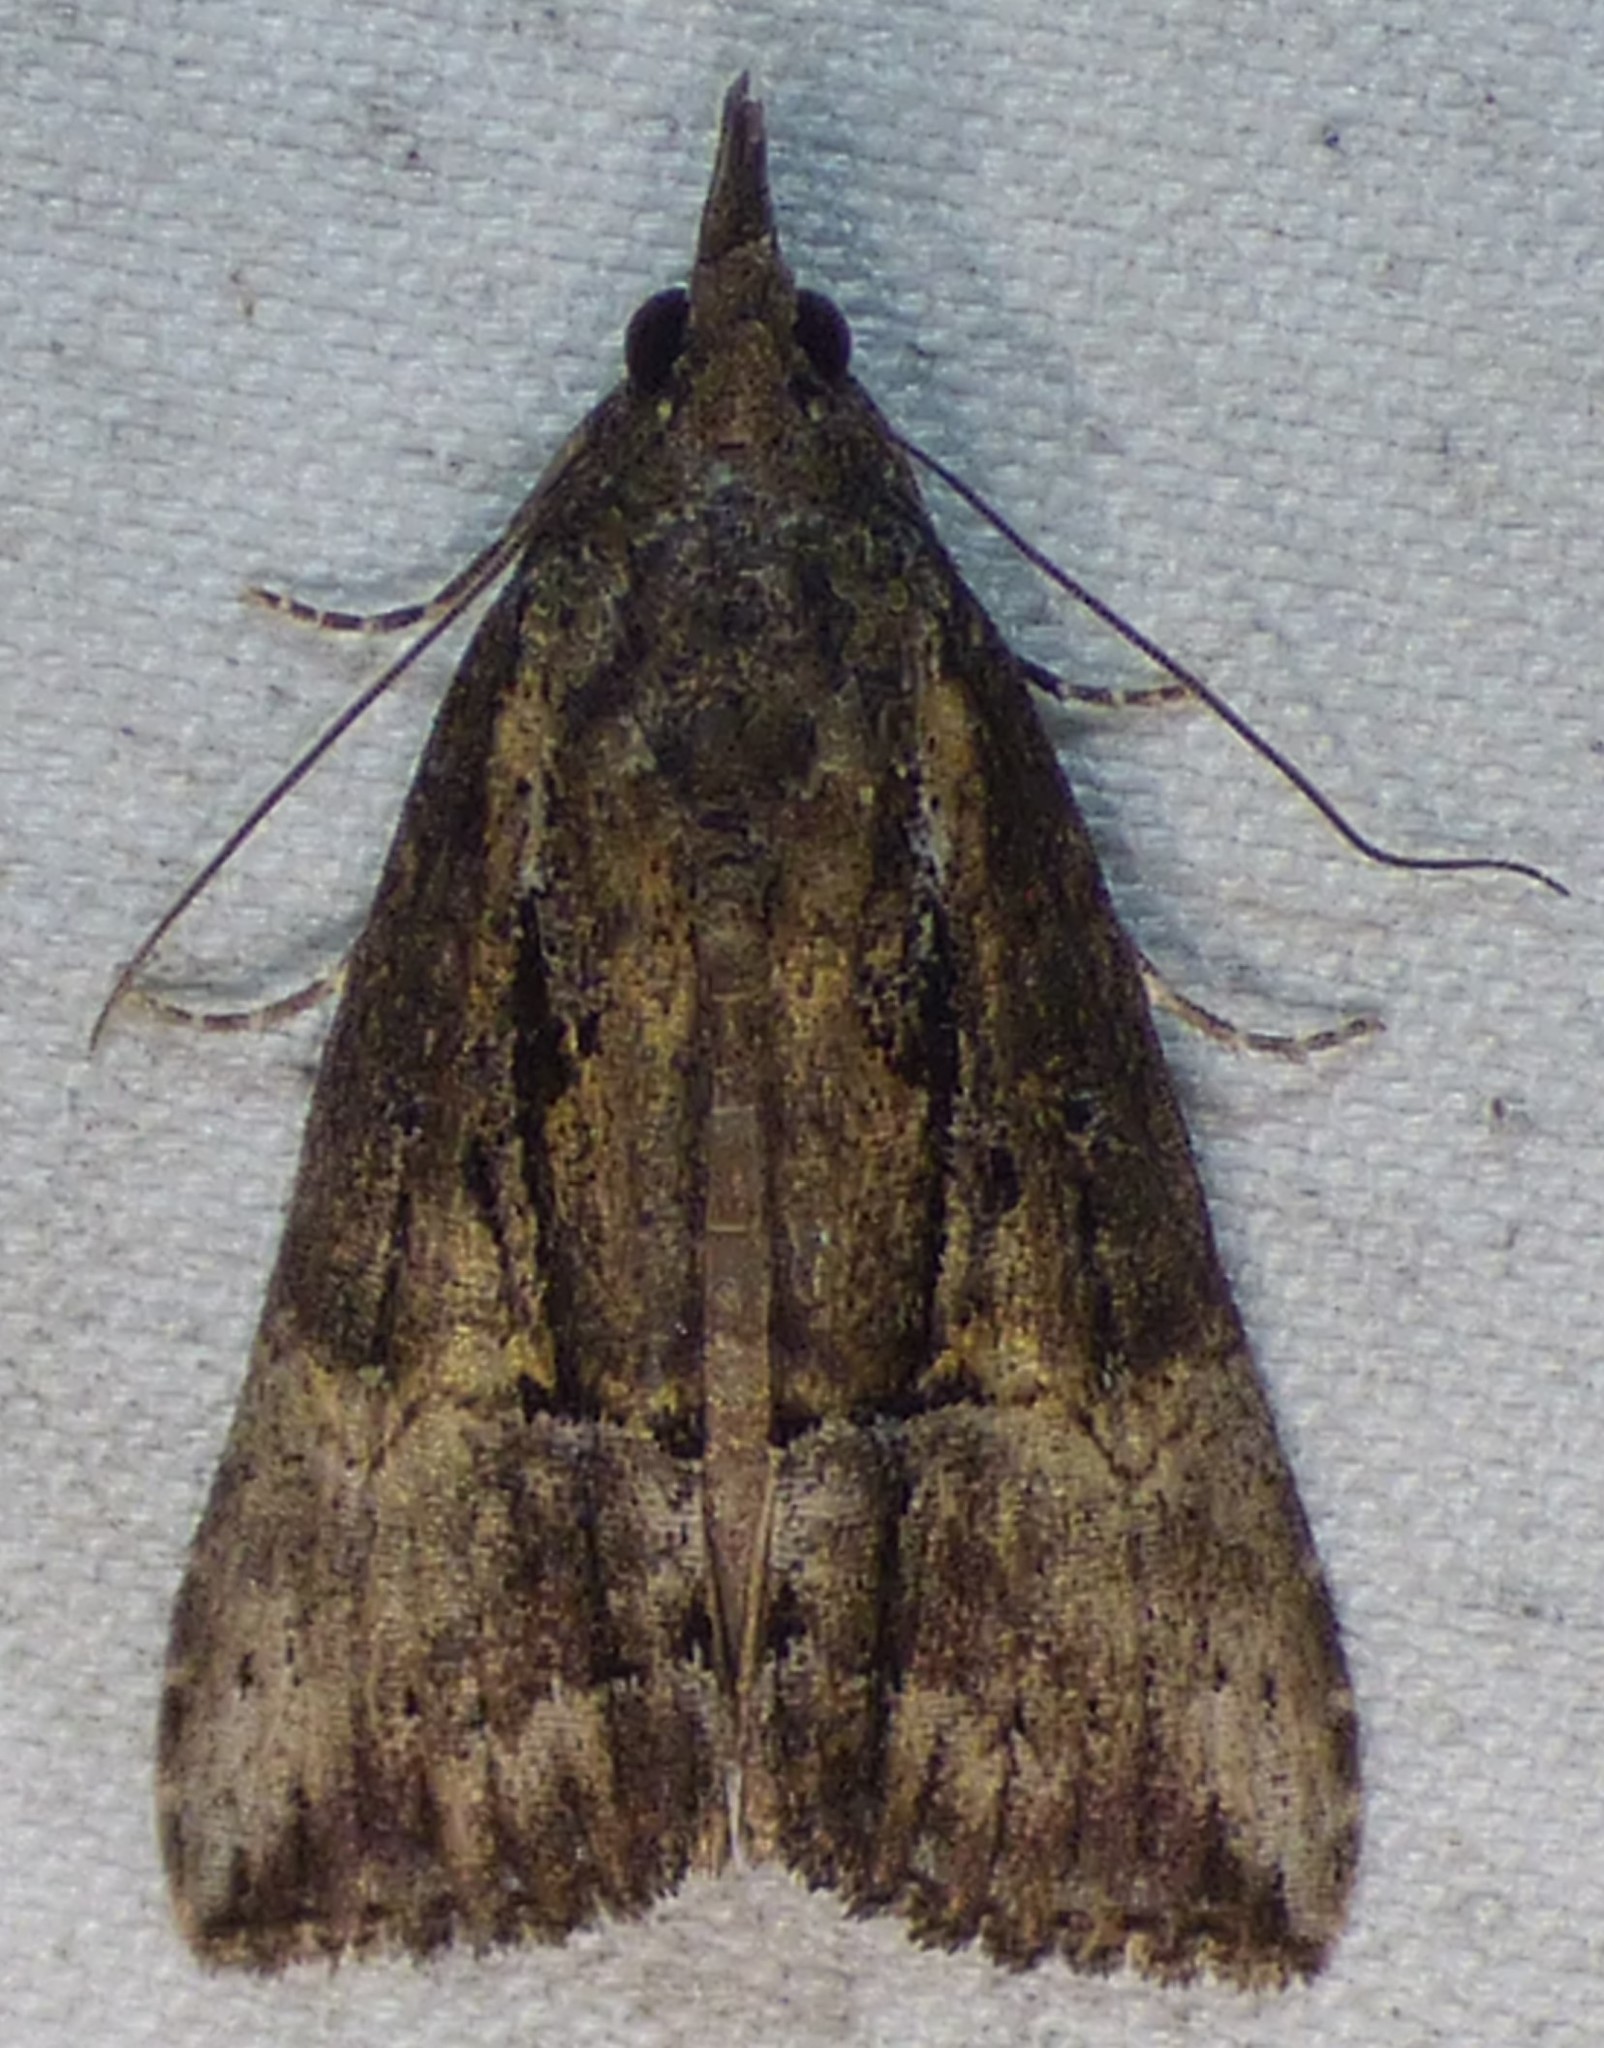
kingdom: Animalia
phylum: Arthropoda
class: Insecta
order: Lepidoptera
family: Erebidae
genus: Hypena
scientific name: Hypena scabra
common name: Green cloverworm
